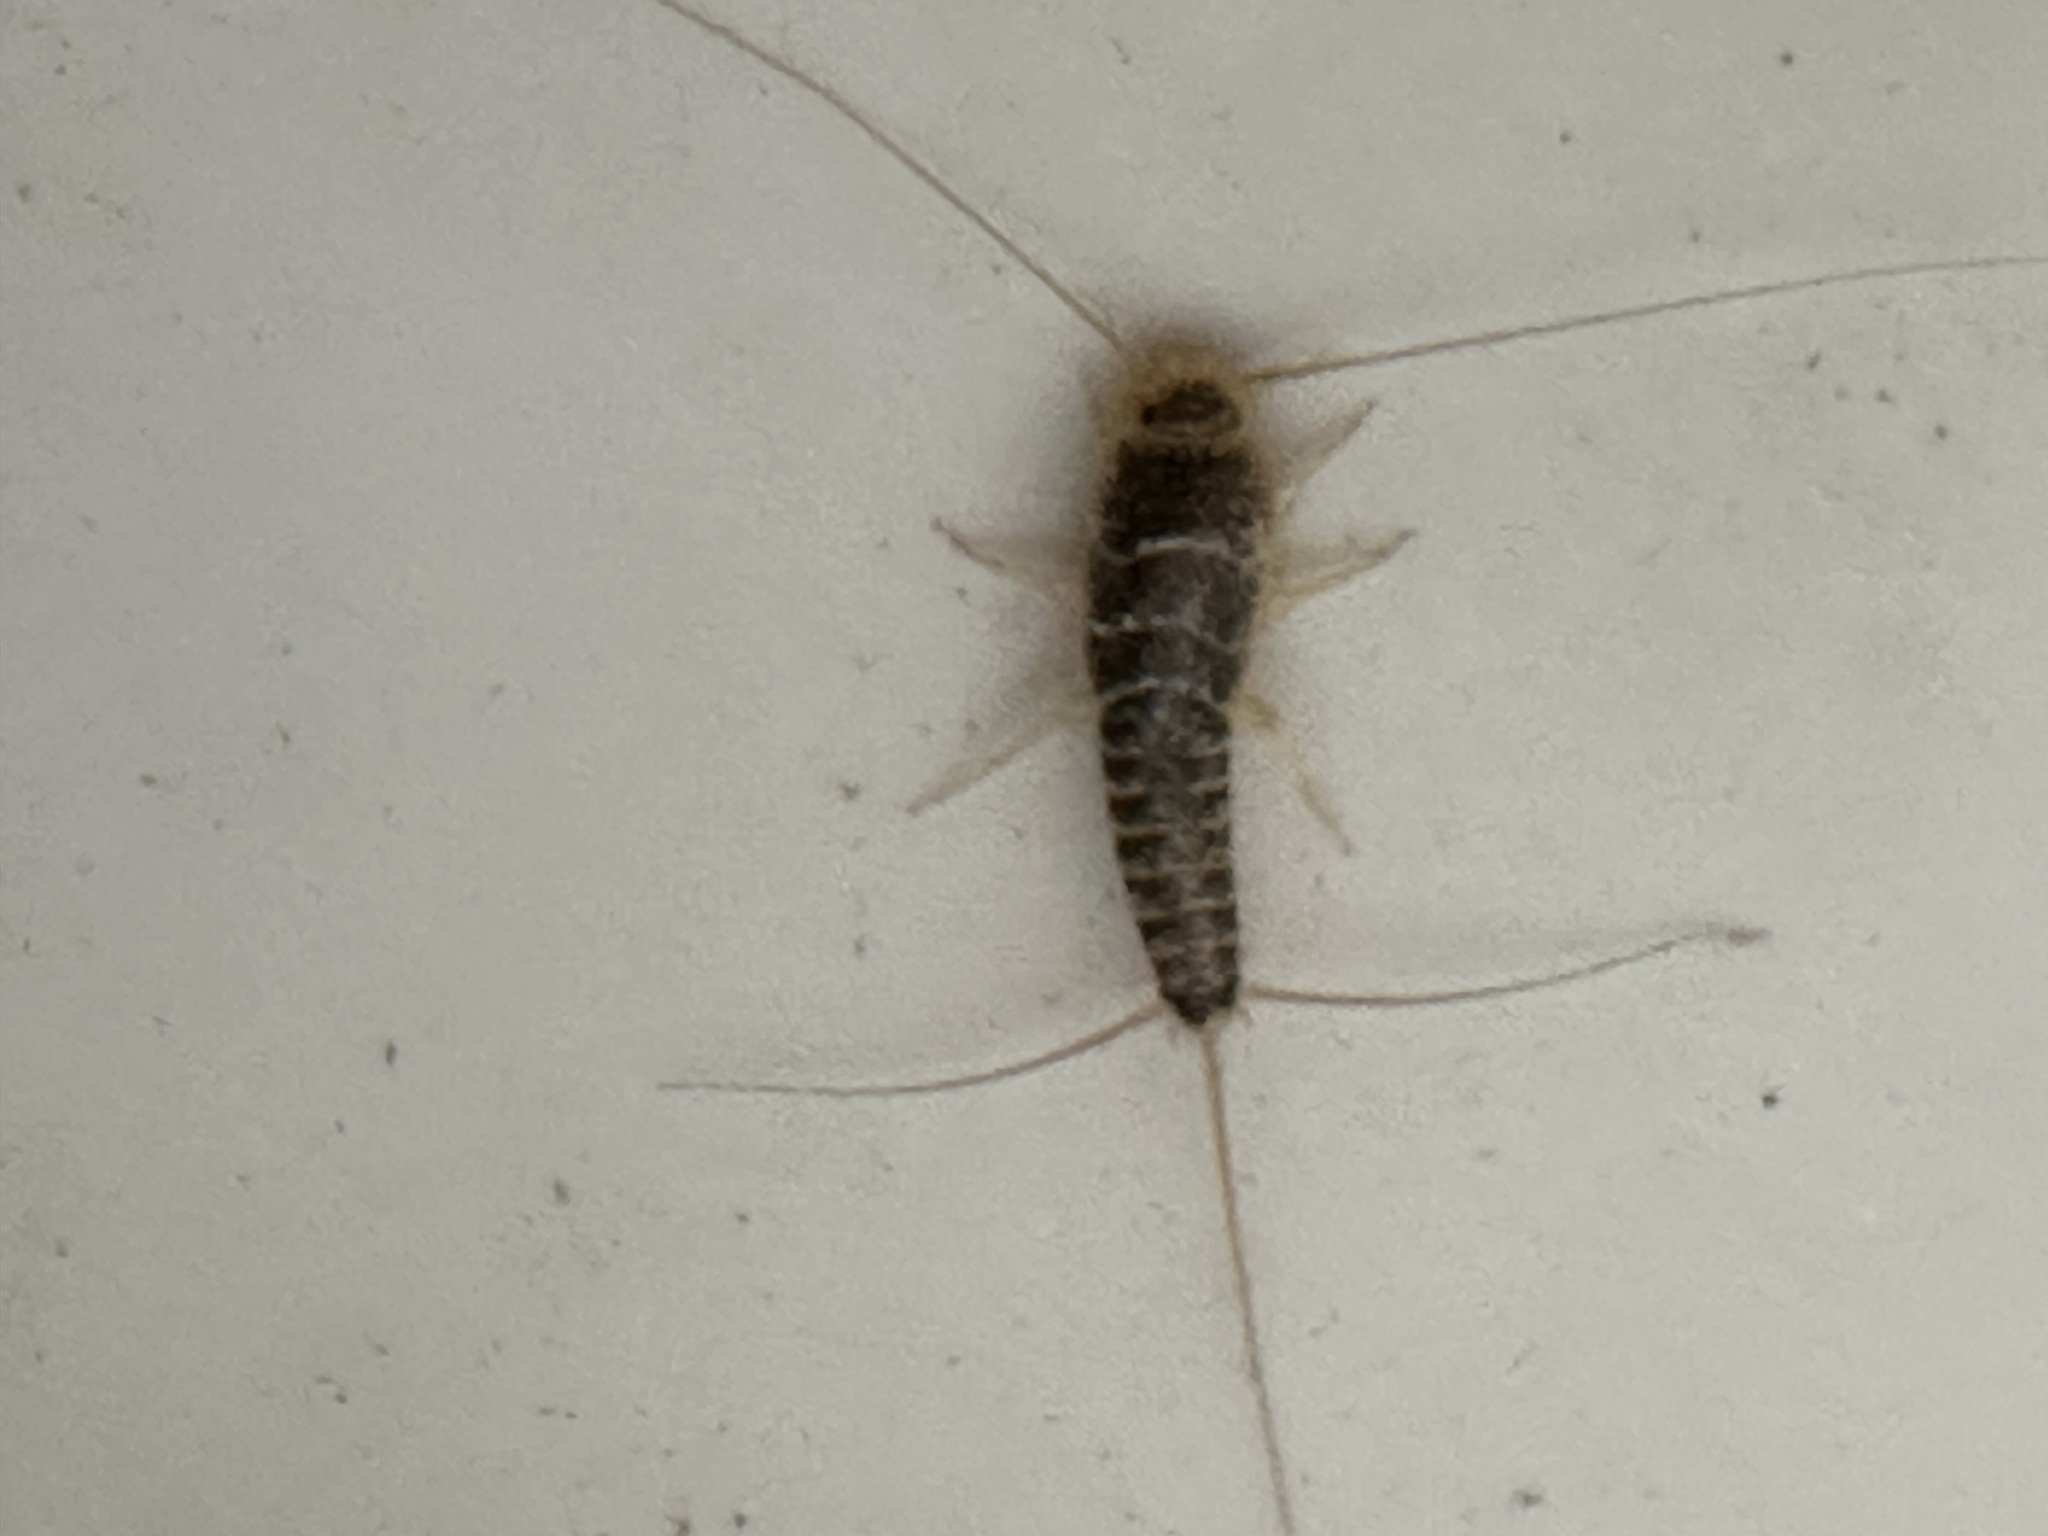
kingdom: Animalia
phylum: Arthropoda
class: Insecta
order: Zygentoma
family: Lepismatidae
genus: Ctenolepisma
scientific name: Ctenolepisma longicaudatum
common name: Silverfish
